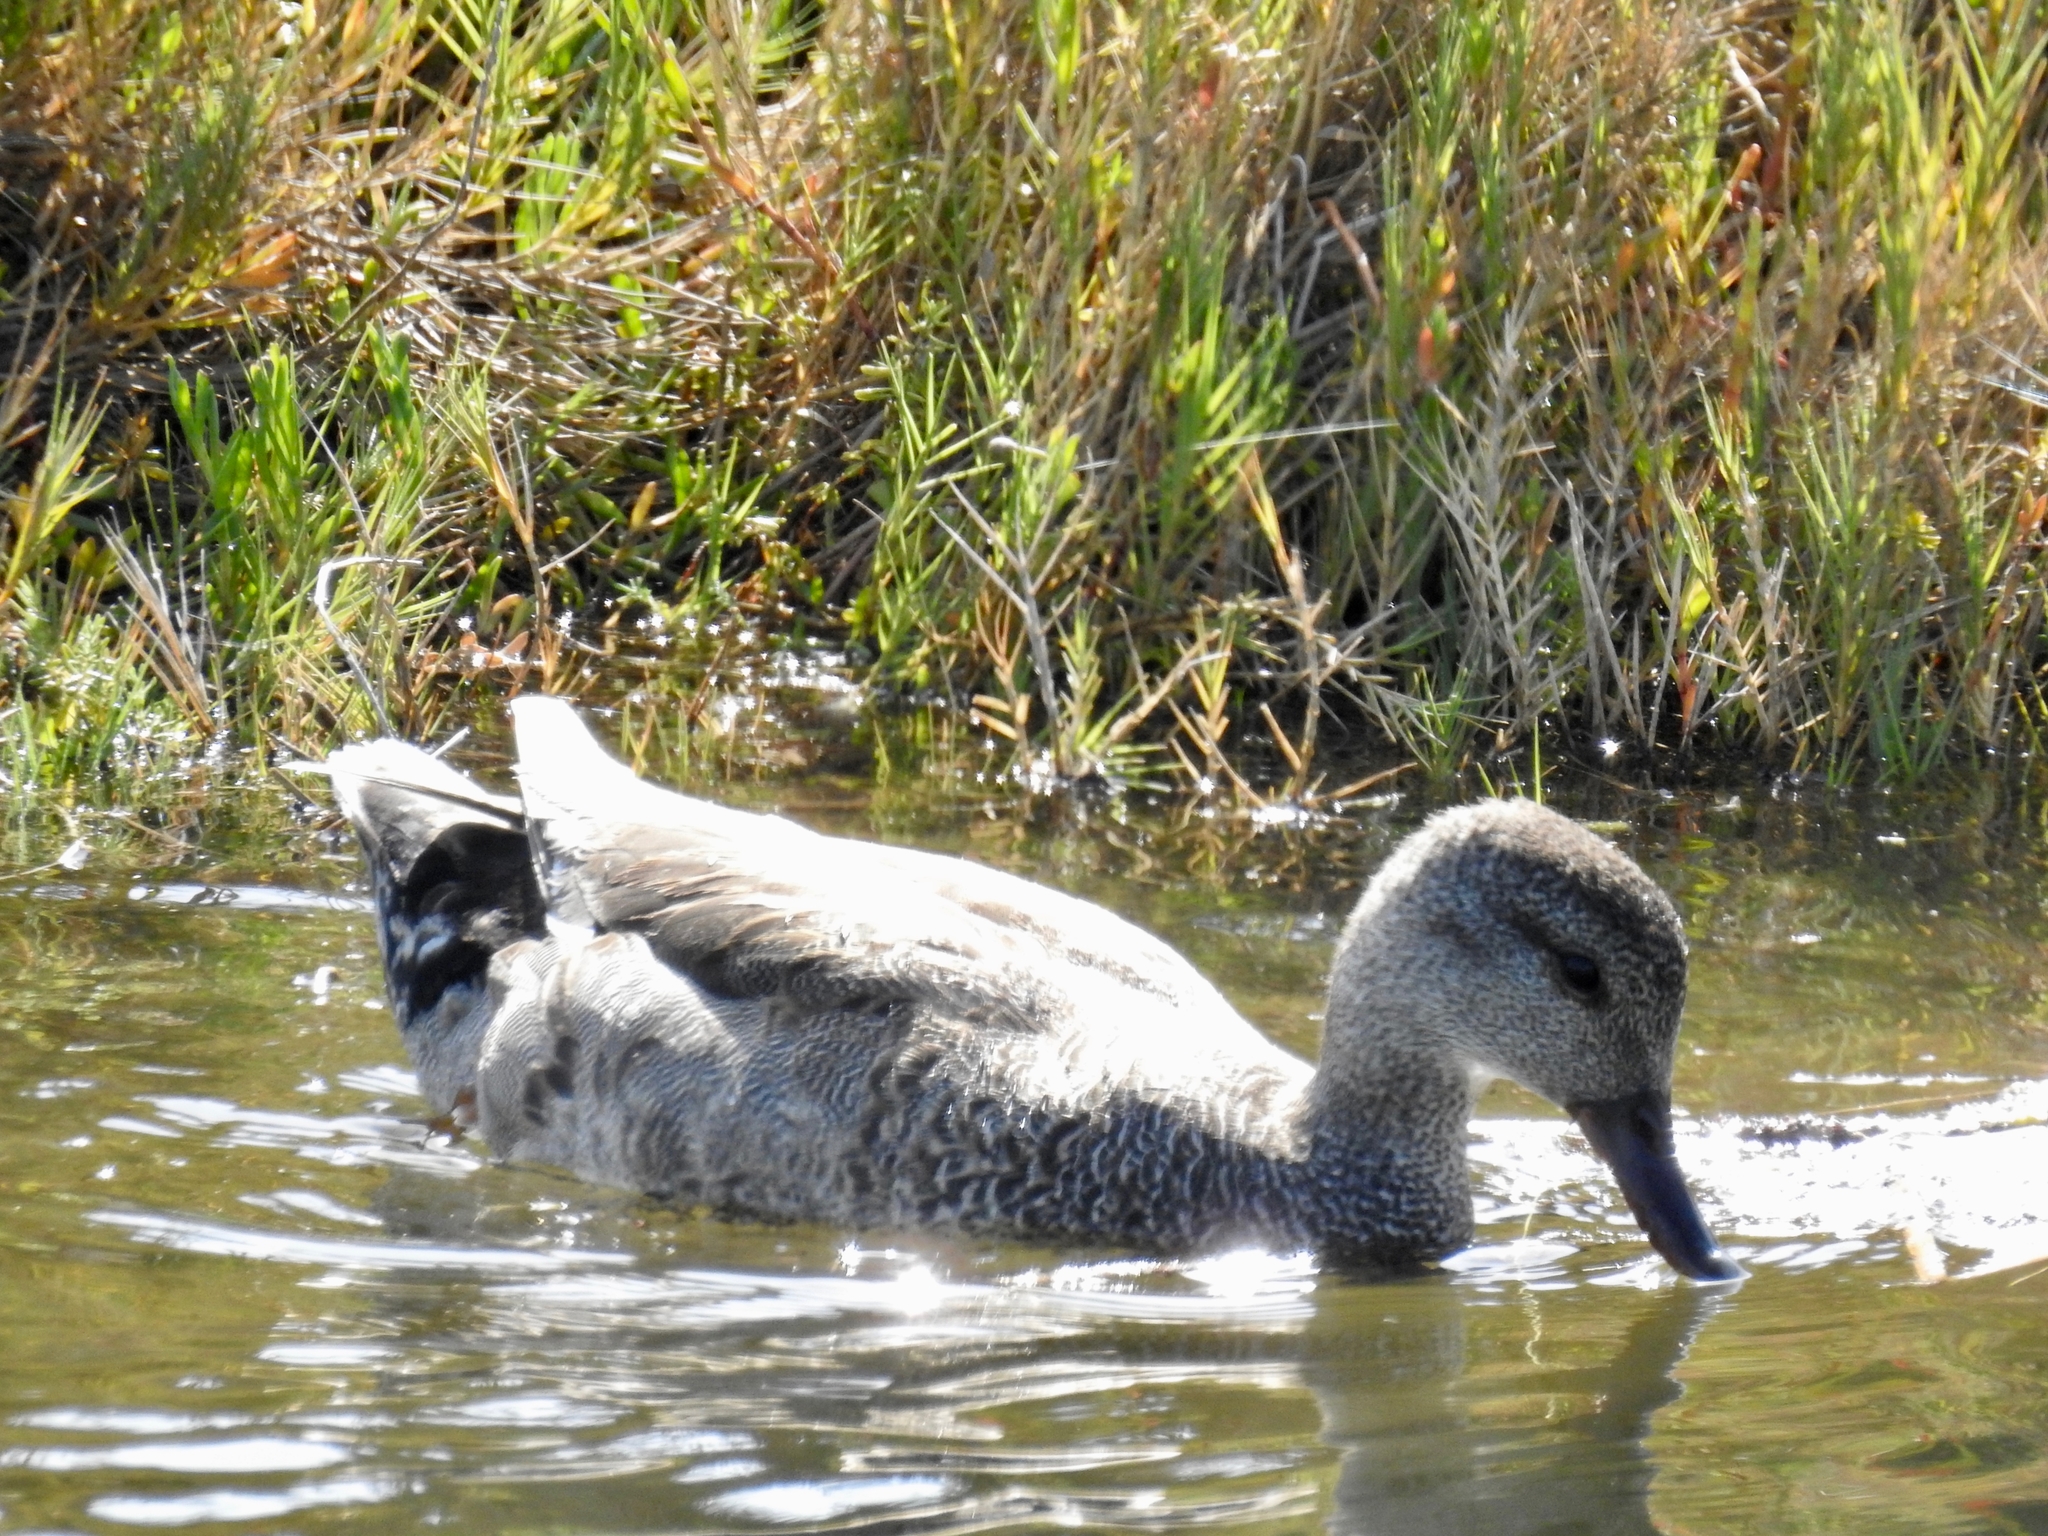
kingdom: Animalia
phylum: Chordata
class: Aves
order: Anseriformes
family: Anatidae
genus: Mareca
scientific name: Mareca strepera
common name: Gadwall
